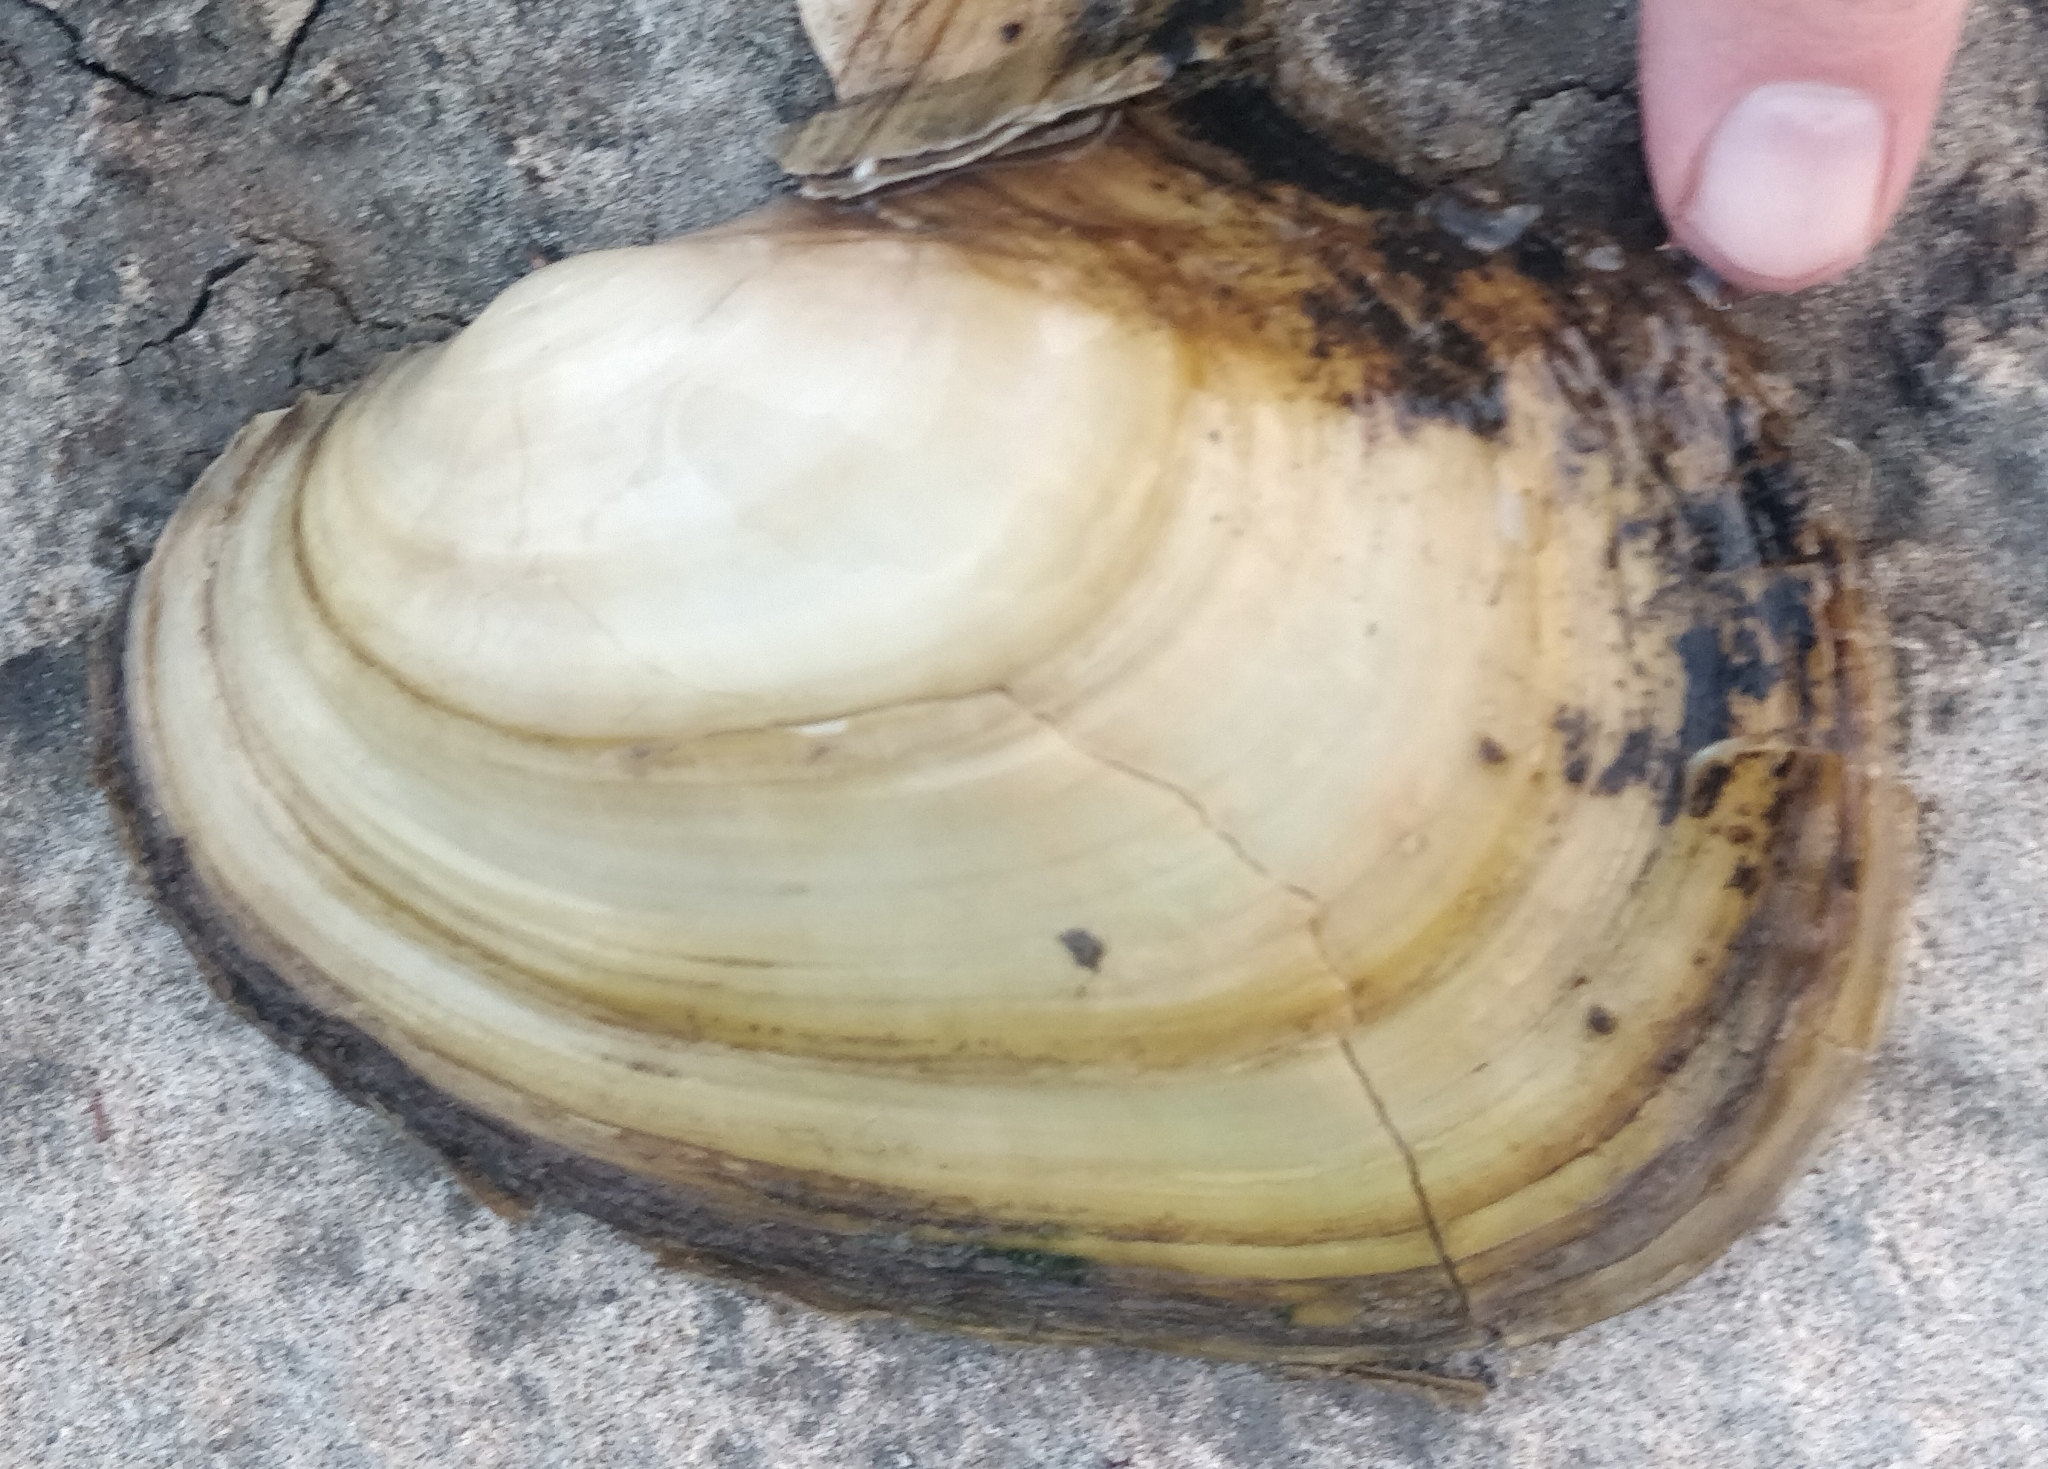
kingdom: Animalia
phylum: Mollusca
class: Bivalvia
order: Unionida
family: Unionidae
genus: Potamilus
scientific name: Potamilus fragilis
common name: Fragile papershell
